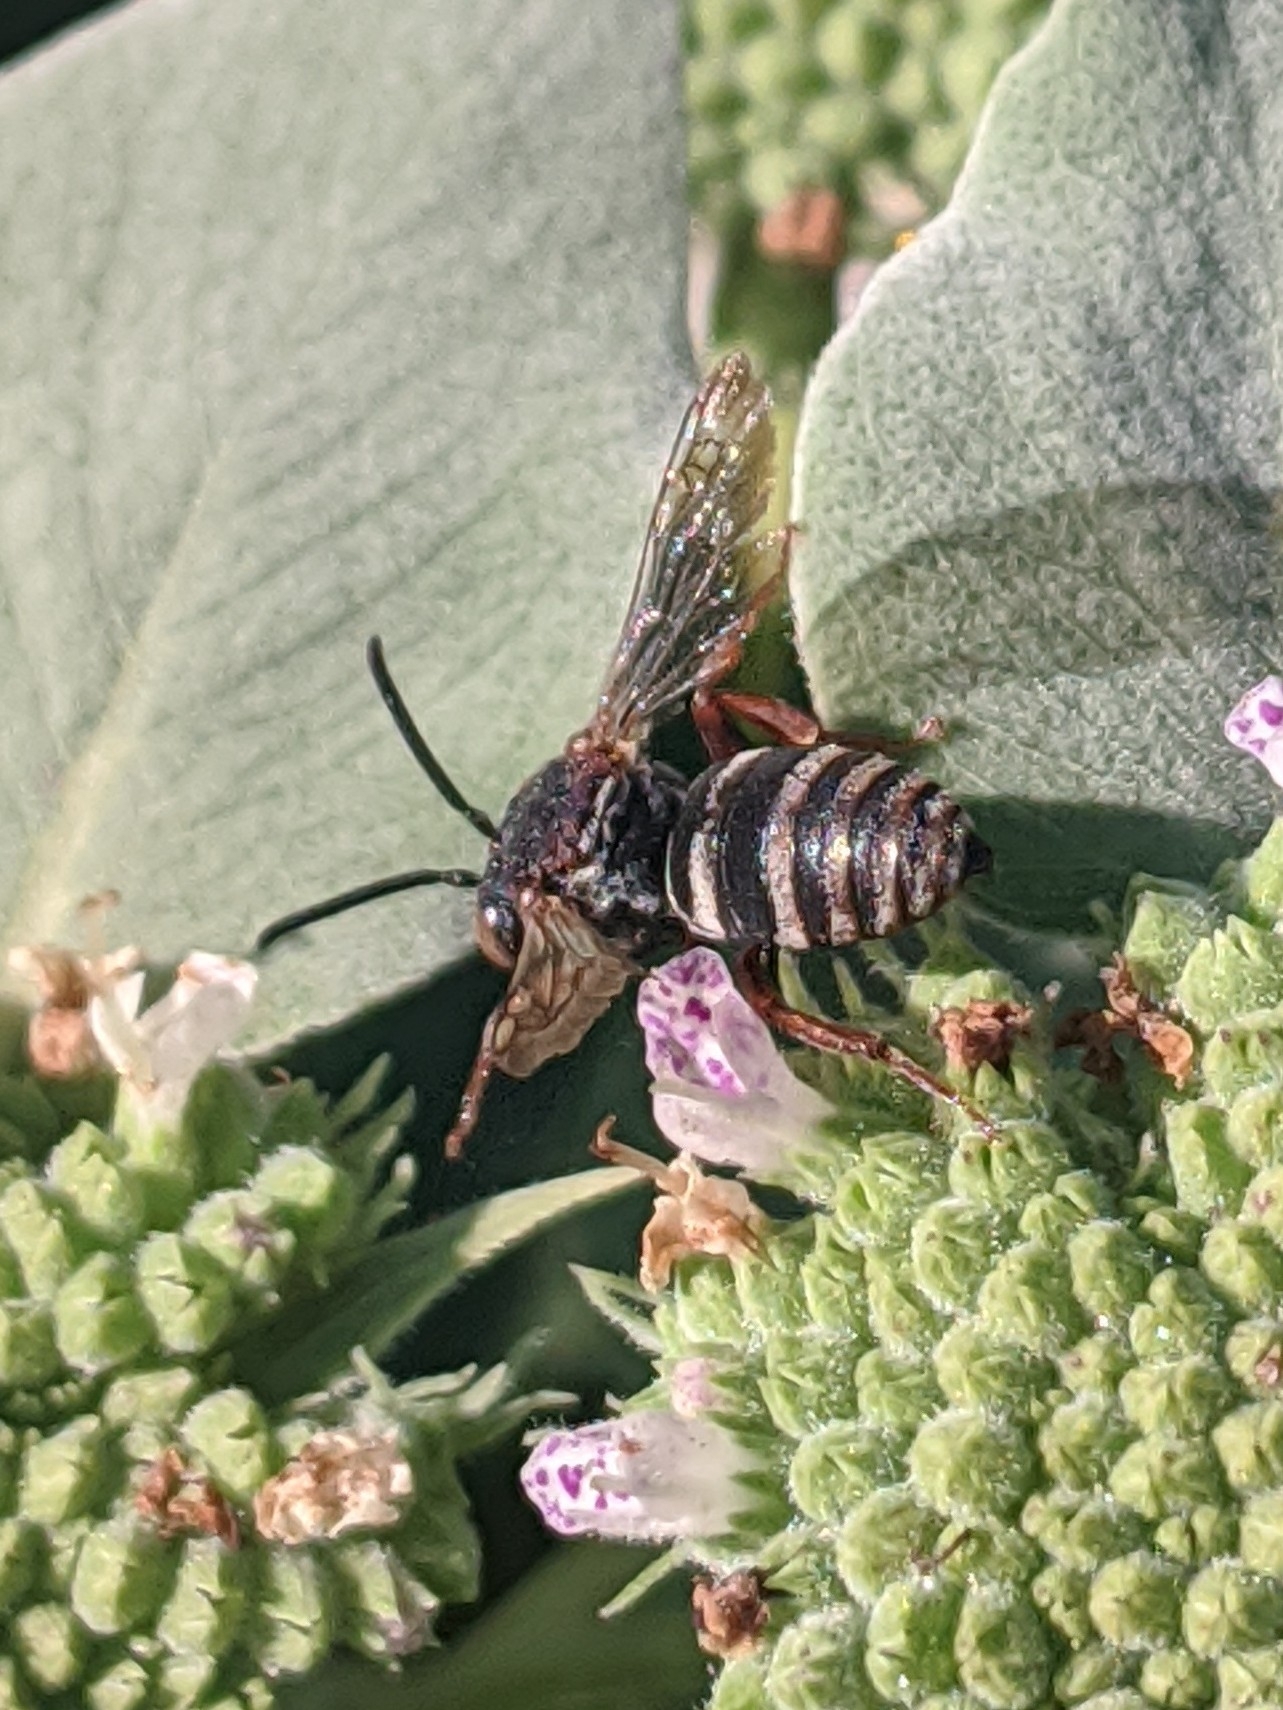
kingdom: Animalia
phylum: Arthropoda
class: Insecta
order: Hymenoptera
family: Apidae
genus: Epeolus
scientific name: Epeolus scutellaris
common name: Notch-backed cellophane-cuckoo bee
